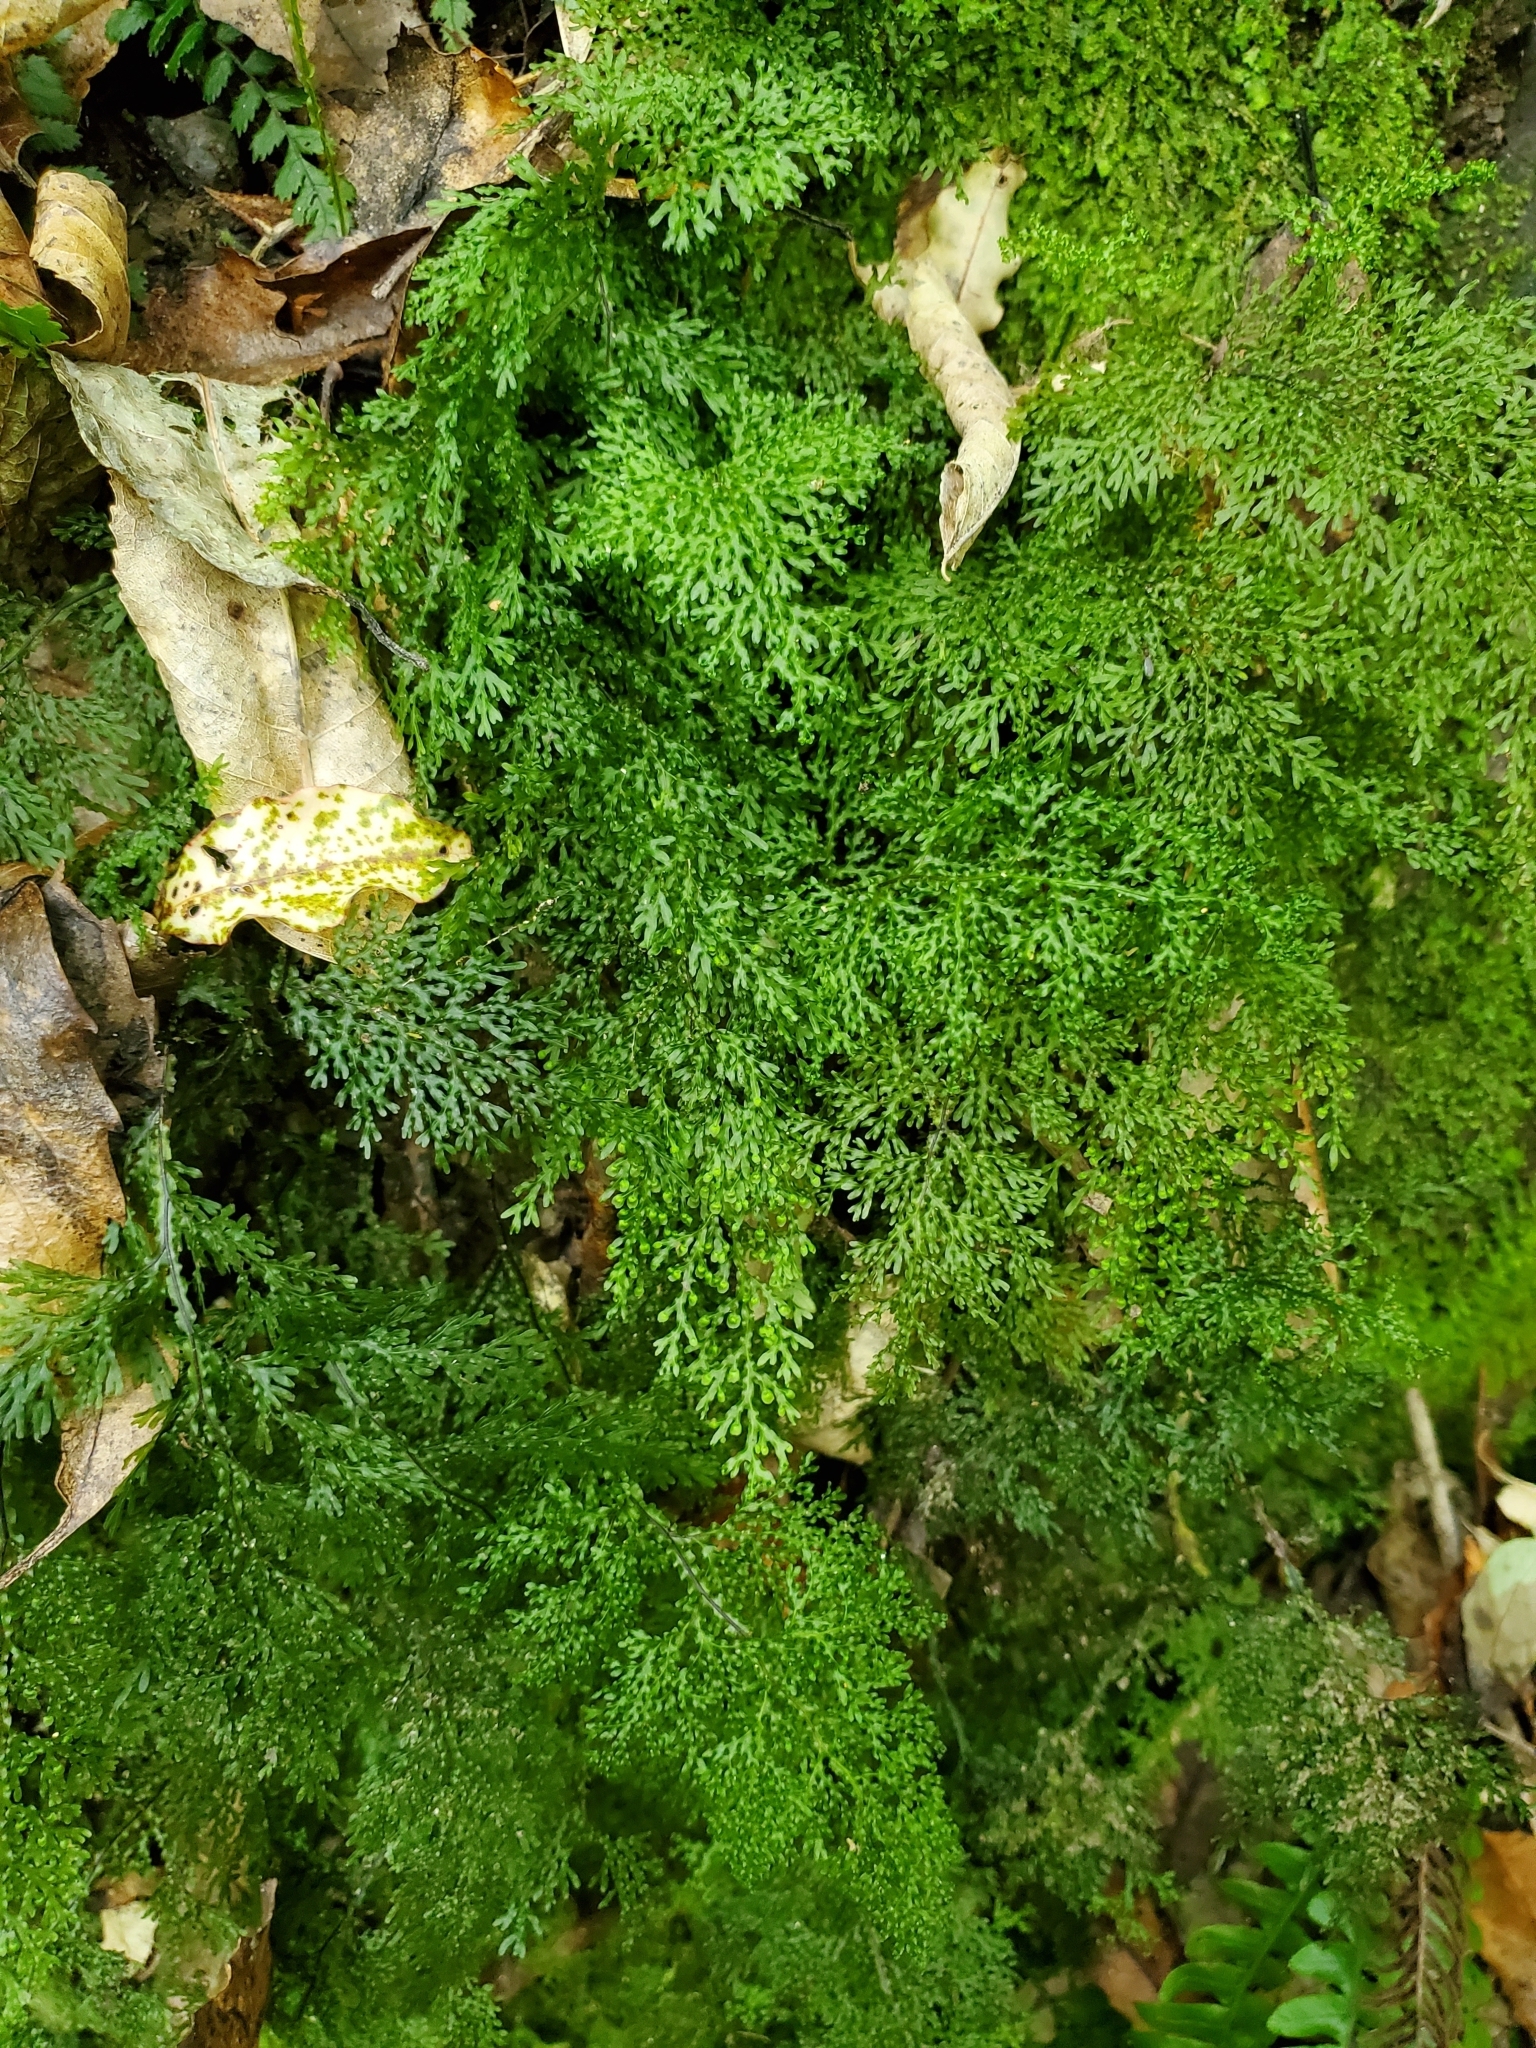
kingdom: Plantae
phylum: Tracheophyta
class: Polypodiopsida
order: Hymenophyllales
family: Hymenophyllaceae
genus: Hymenophyllum
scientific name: Hymenophyllum flexuosum
